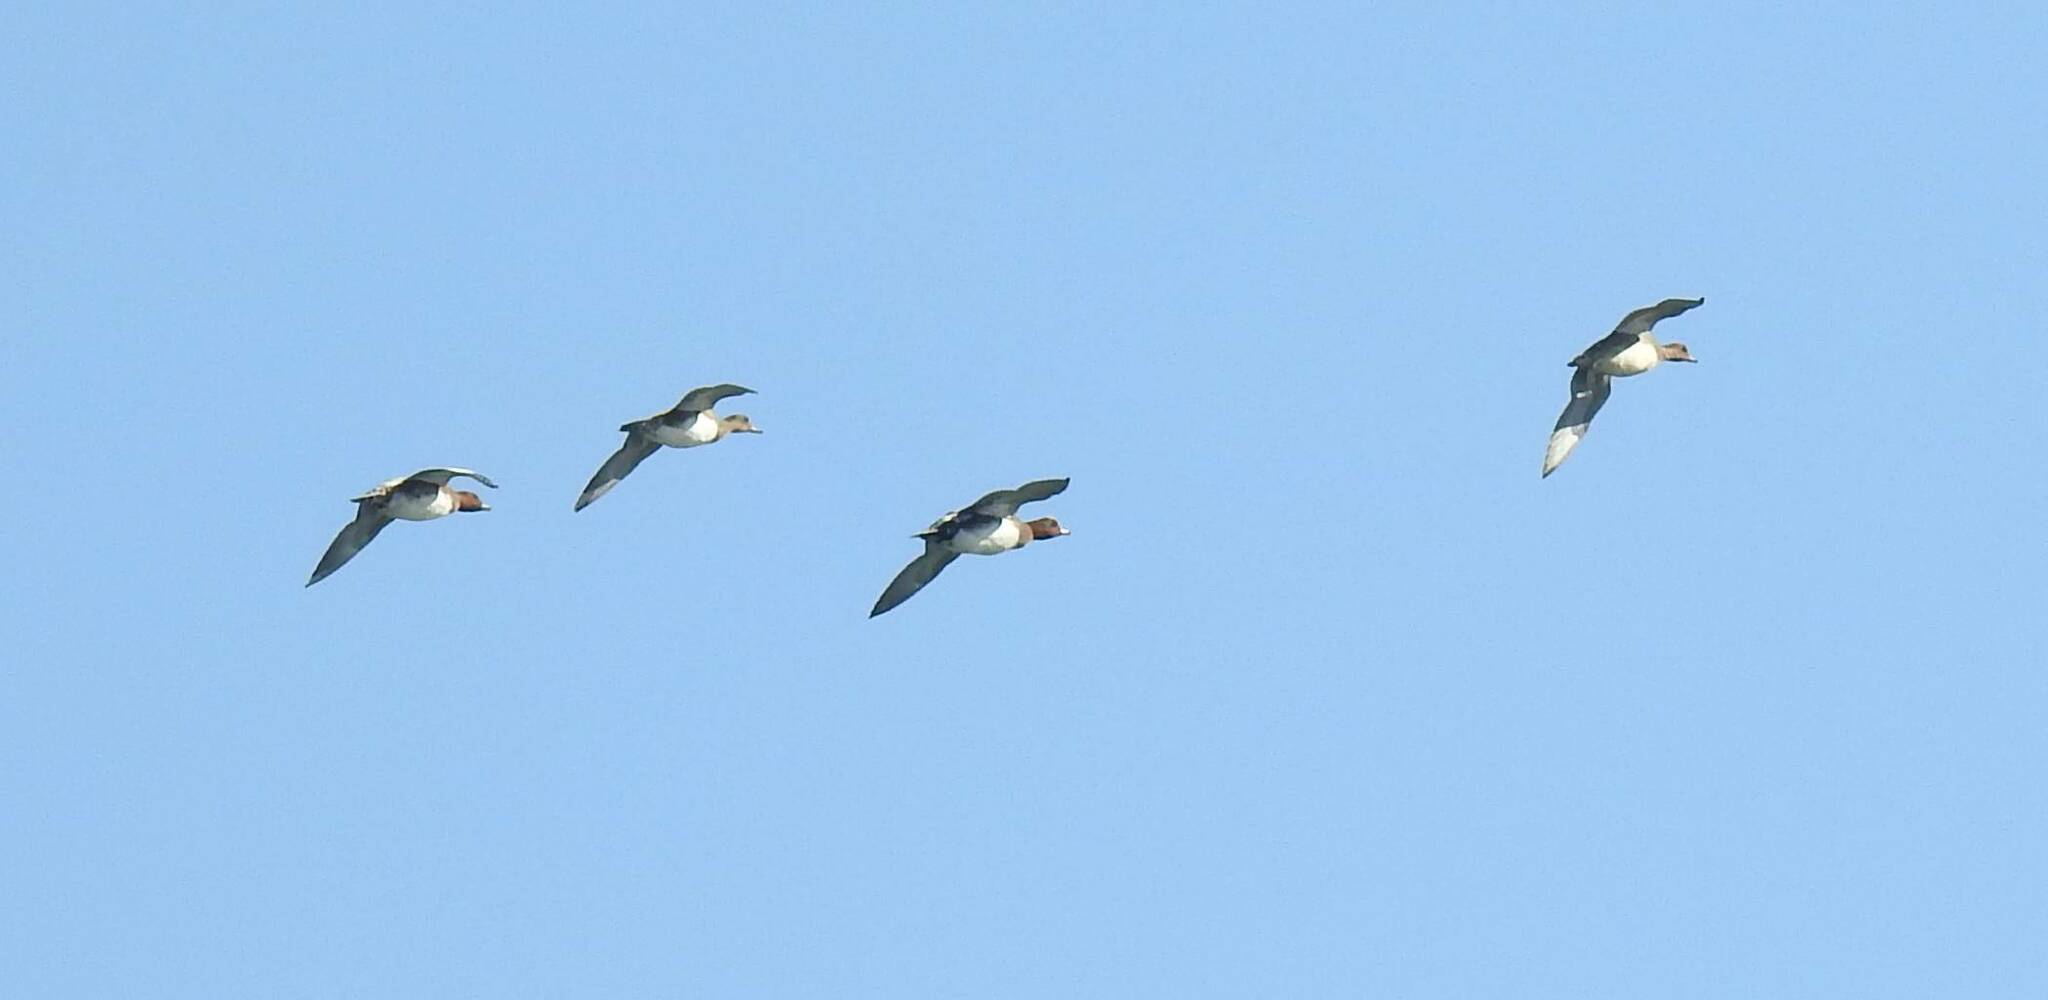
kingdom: Animalia
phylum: Chordata
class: Aves
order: Anseriformes
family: Anatidae
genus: Mareca
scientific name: Mareca penelope
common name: Eurasian wigeon
